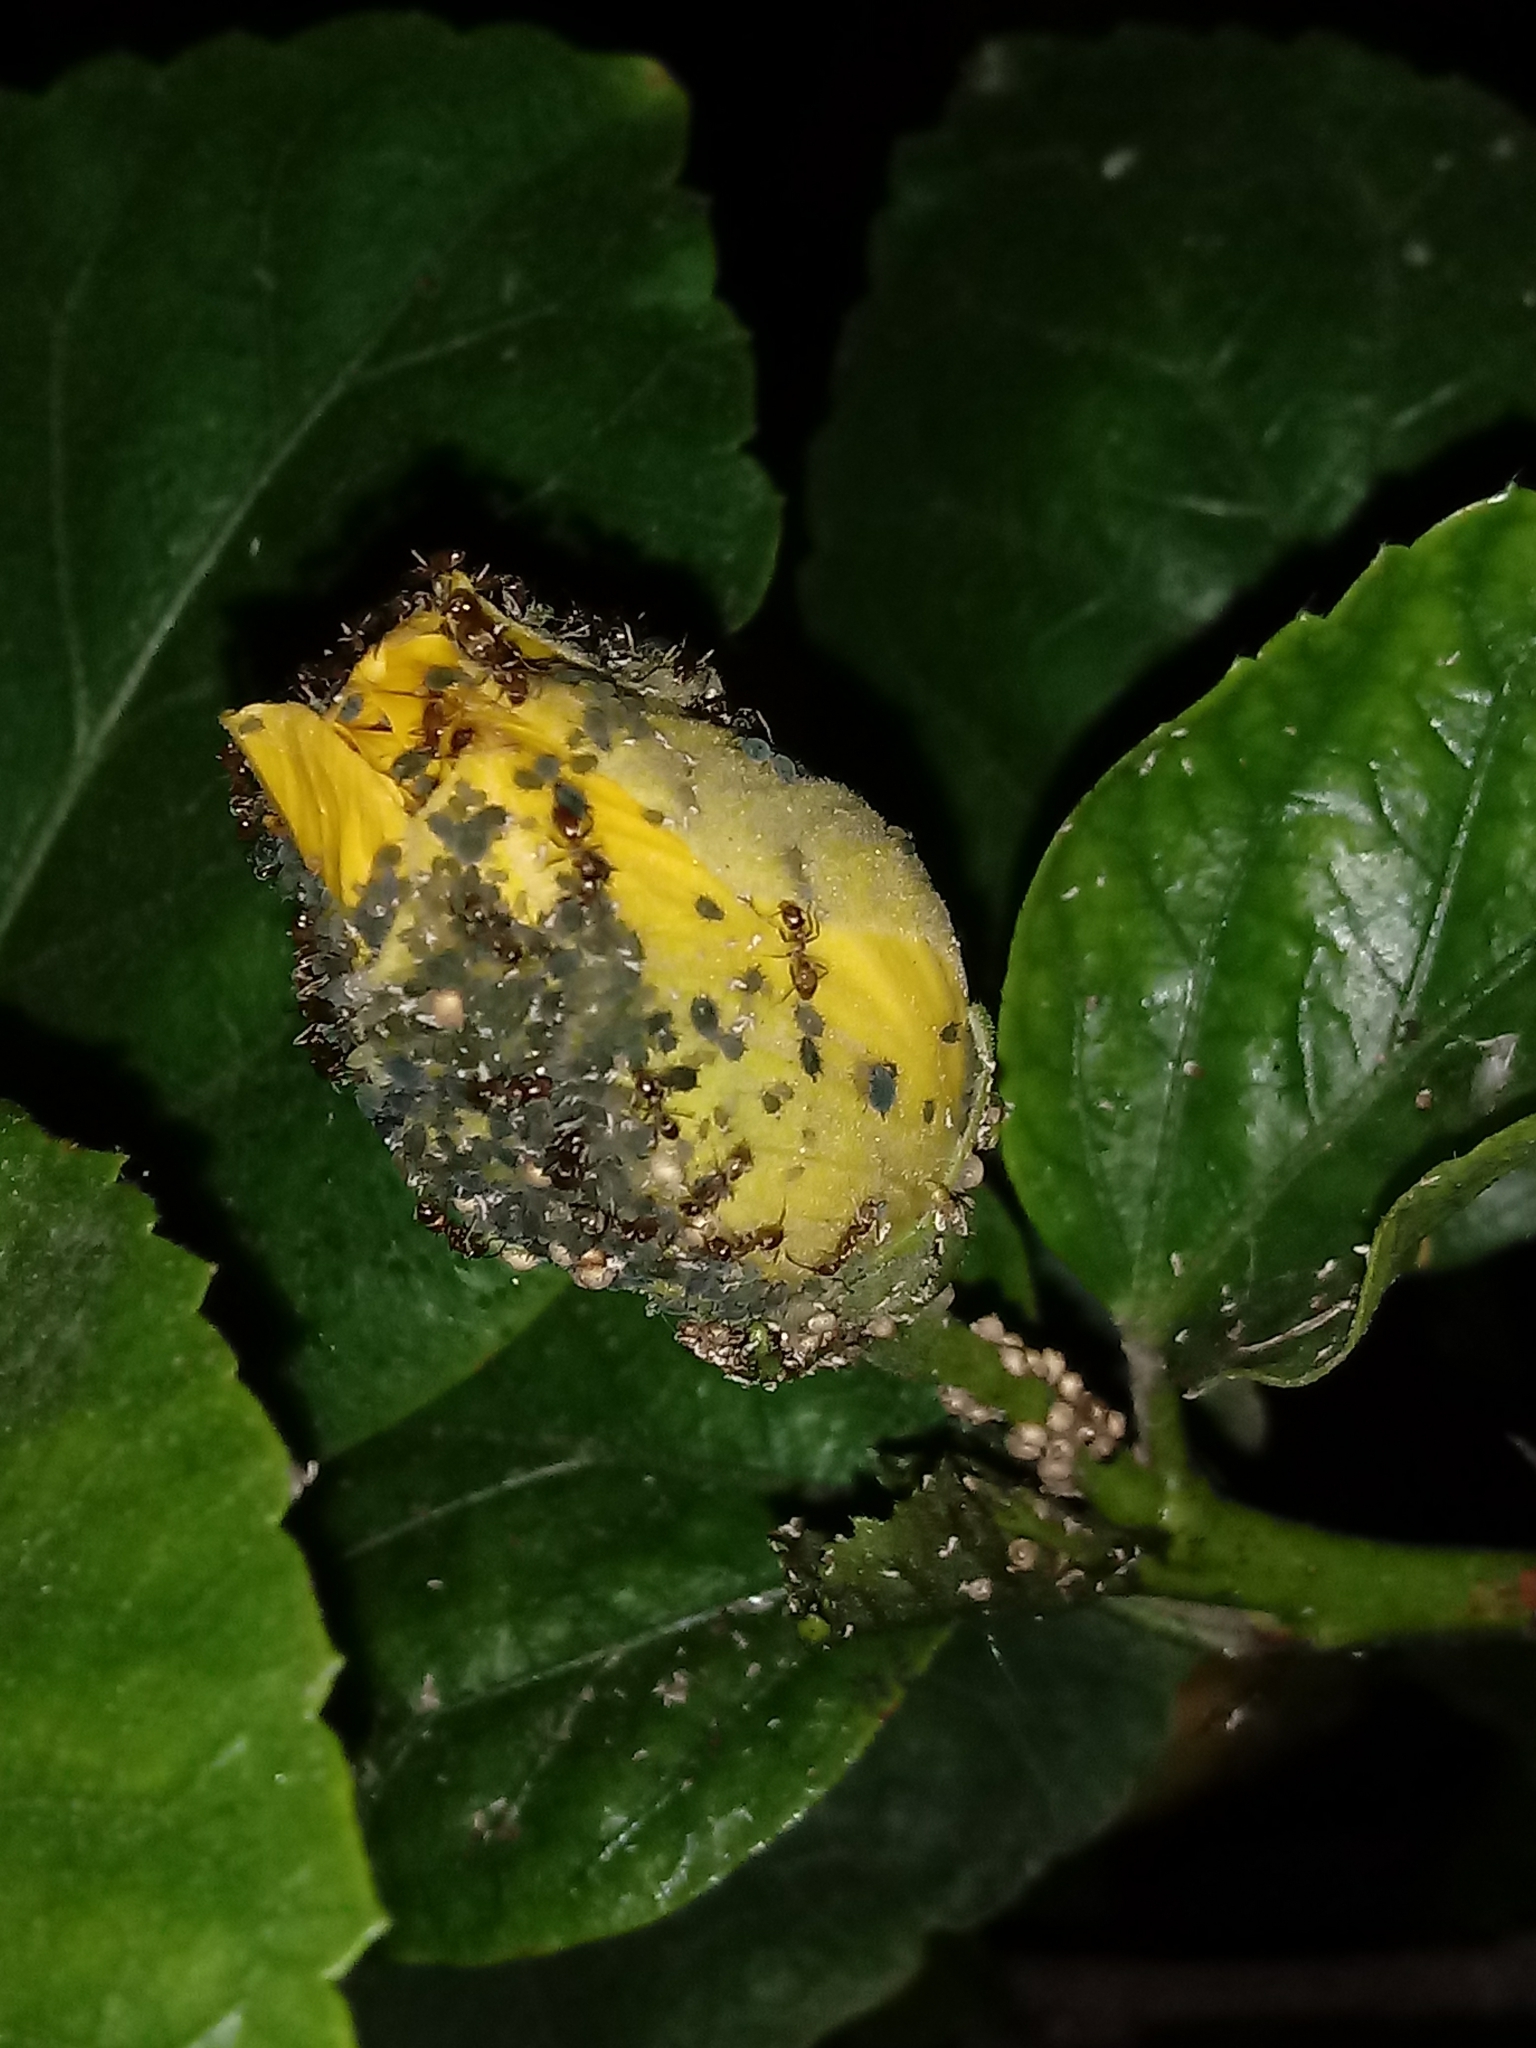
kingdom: Animalia
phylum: Arthropoda
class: Insecta
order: Hymenoptera
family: Formicidae
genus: Linepithema
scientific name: Linepithema humile
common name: Argentine ant
